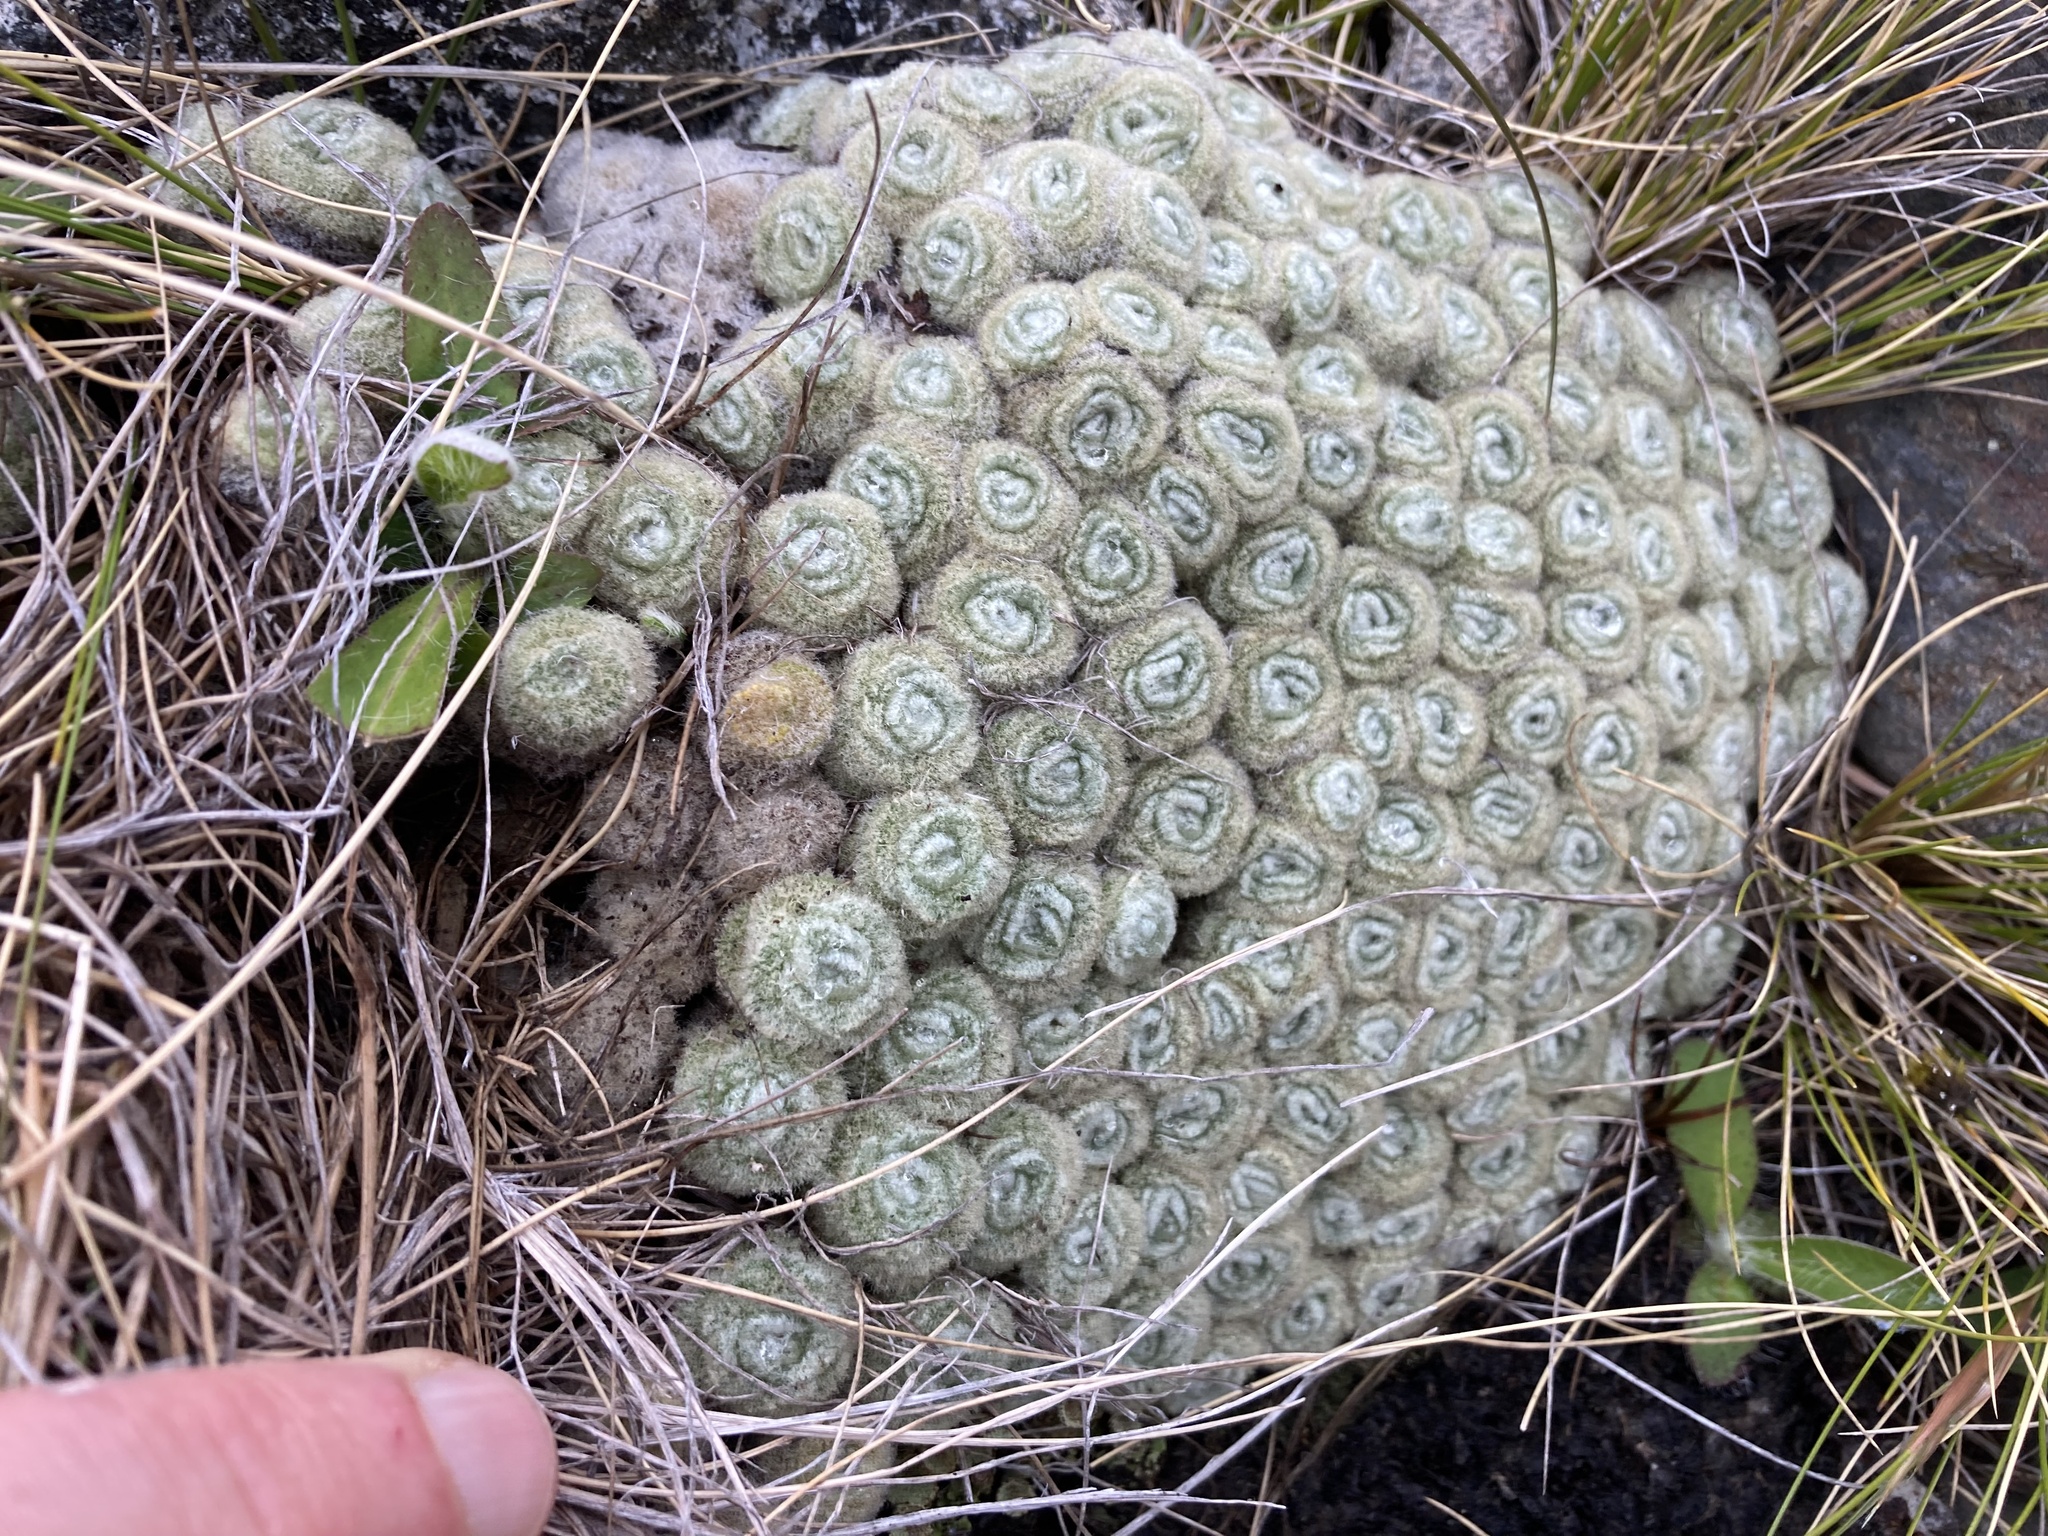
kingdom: Plantae
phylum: Tracheophyta
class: Magnoliopsida
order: Asterales
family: Asteraceae
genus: Haastia
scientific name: Haastia pulvinaris
